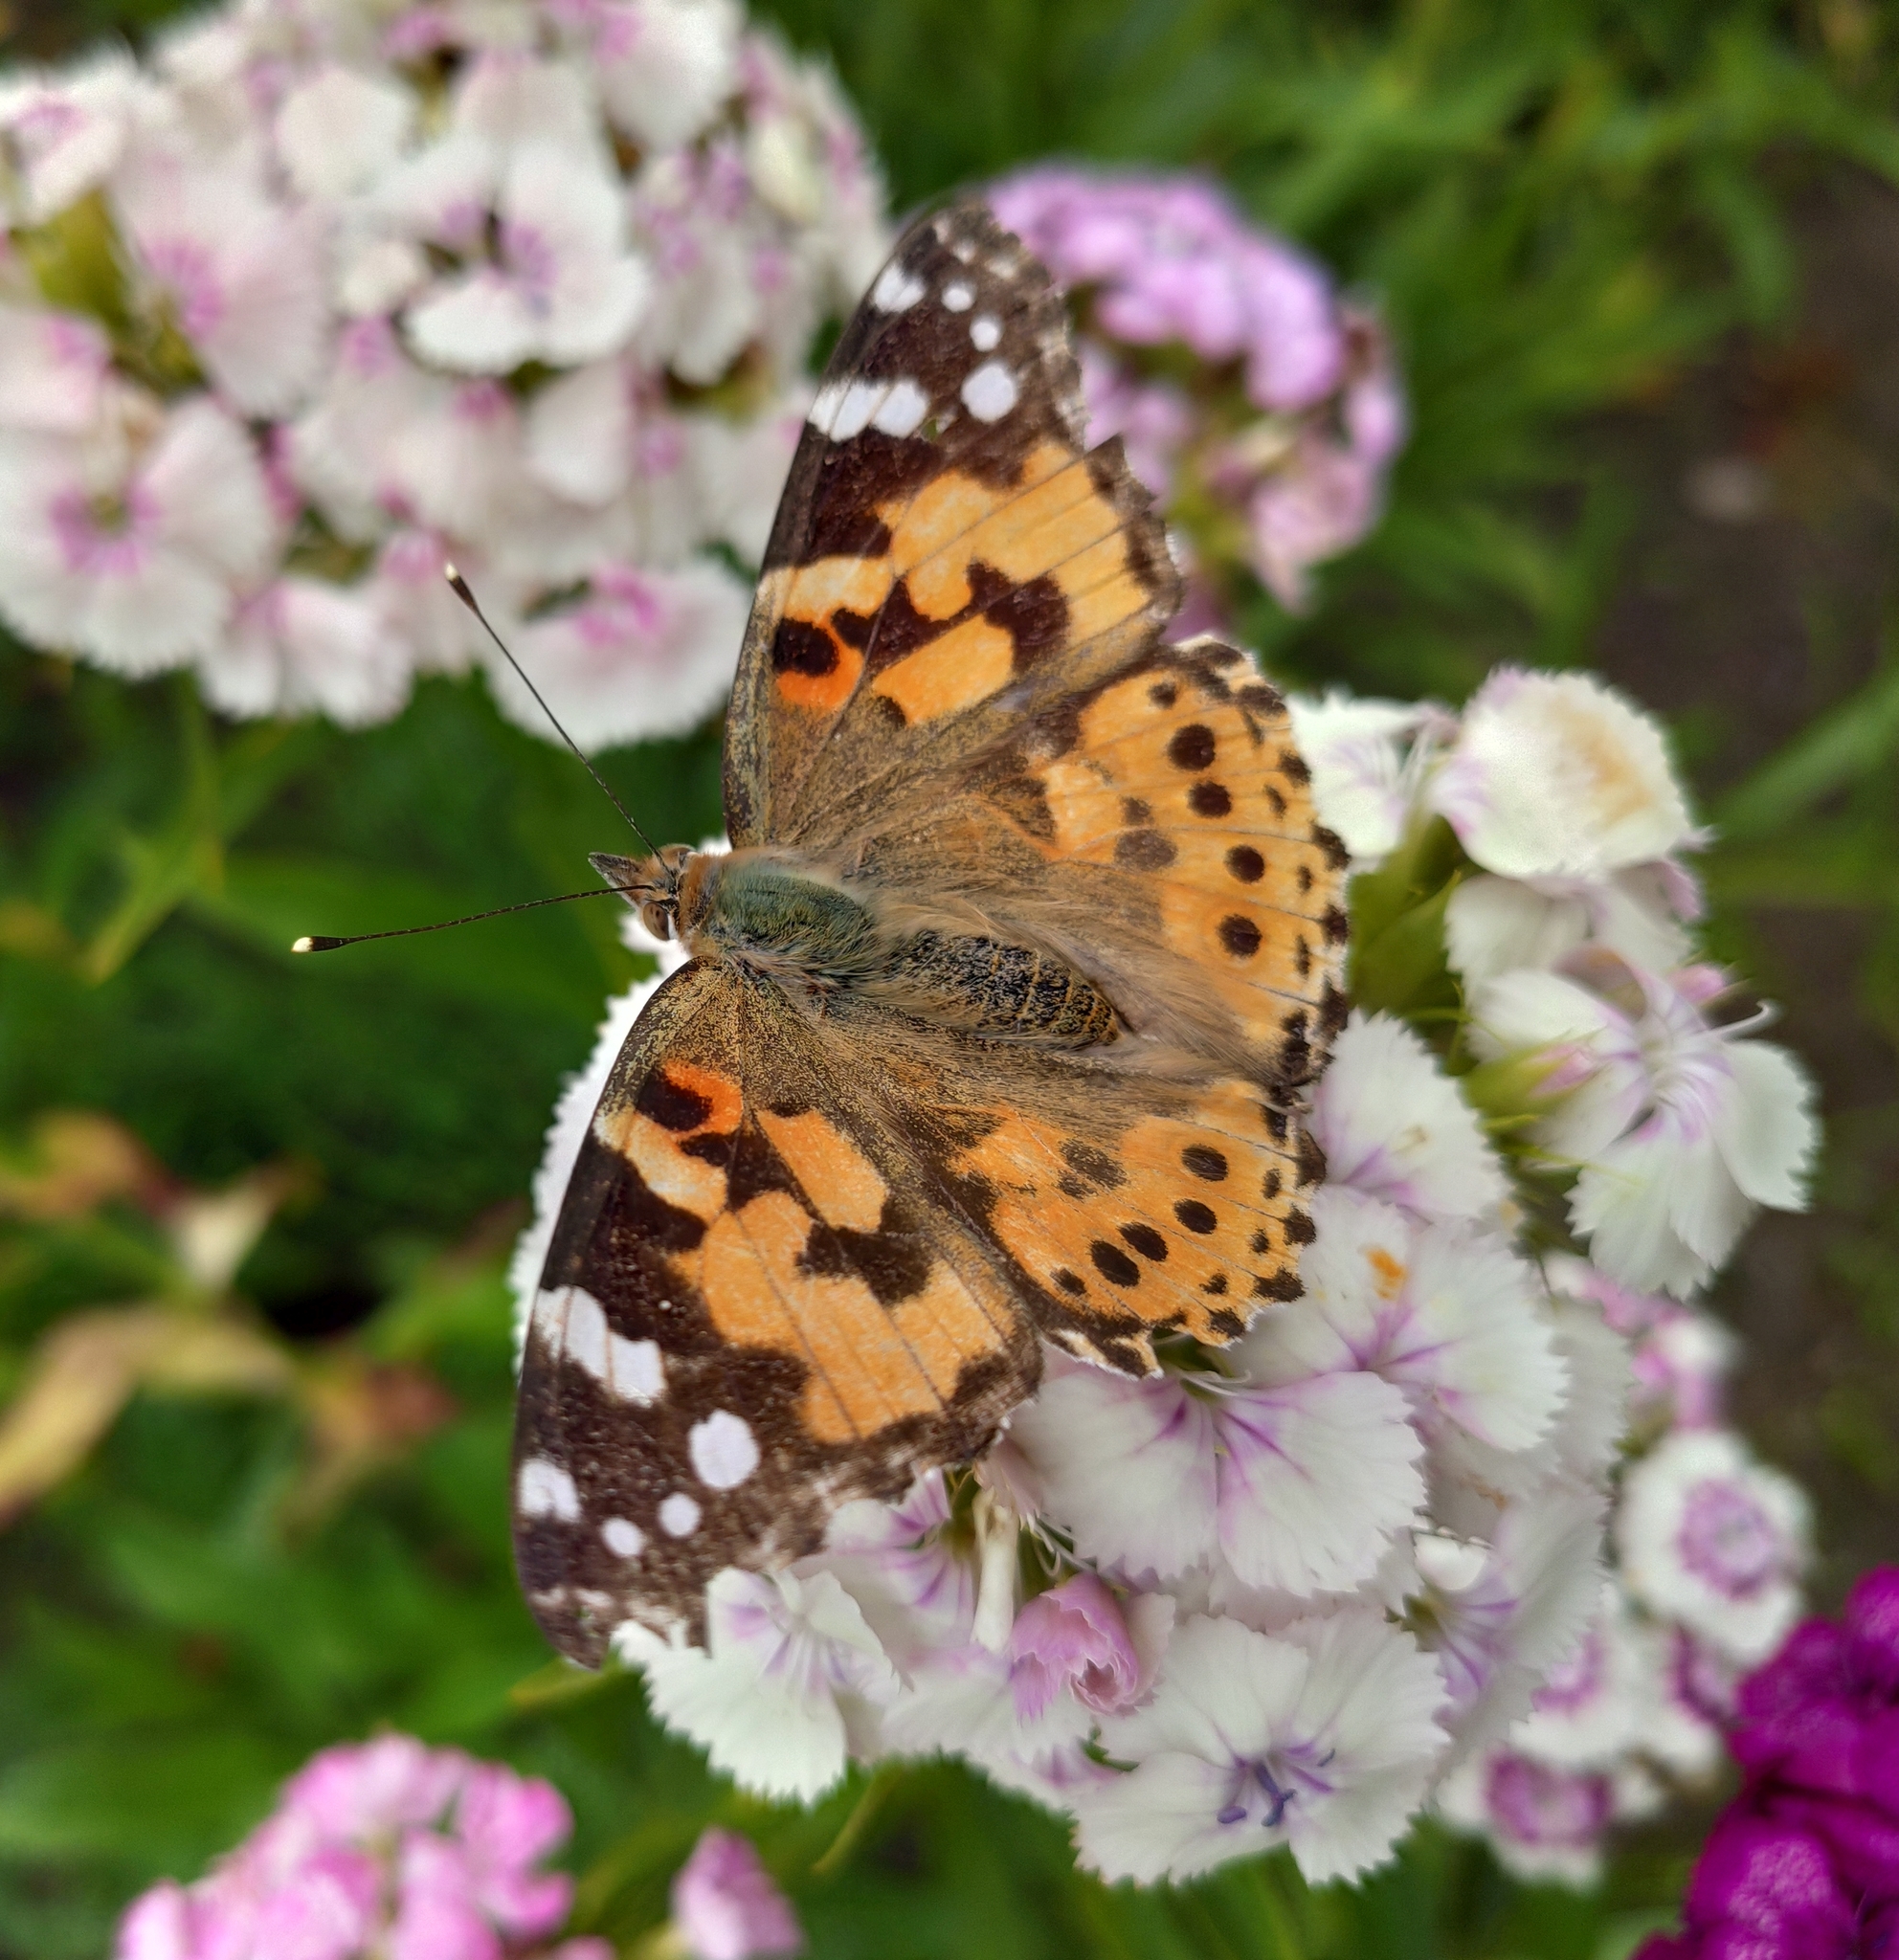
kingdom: Animalia
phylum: Arthropoda
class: Insecta
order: Lepidoptera
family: Nymphalidae
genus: Vanessa
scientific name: Vanessa cardui
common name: Painted lady
